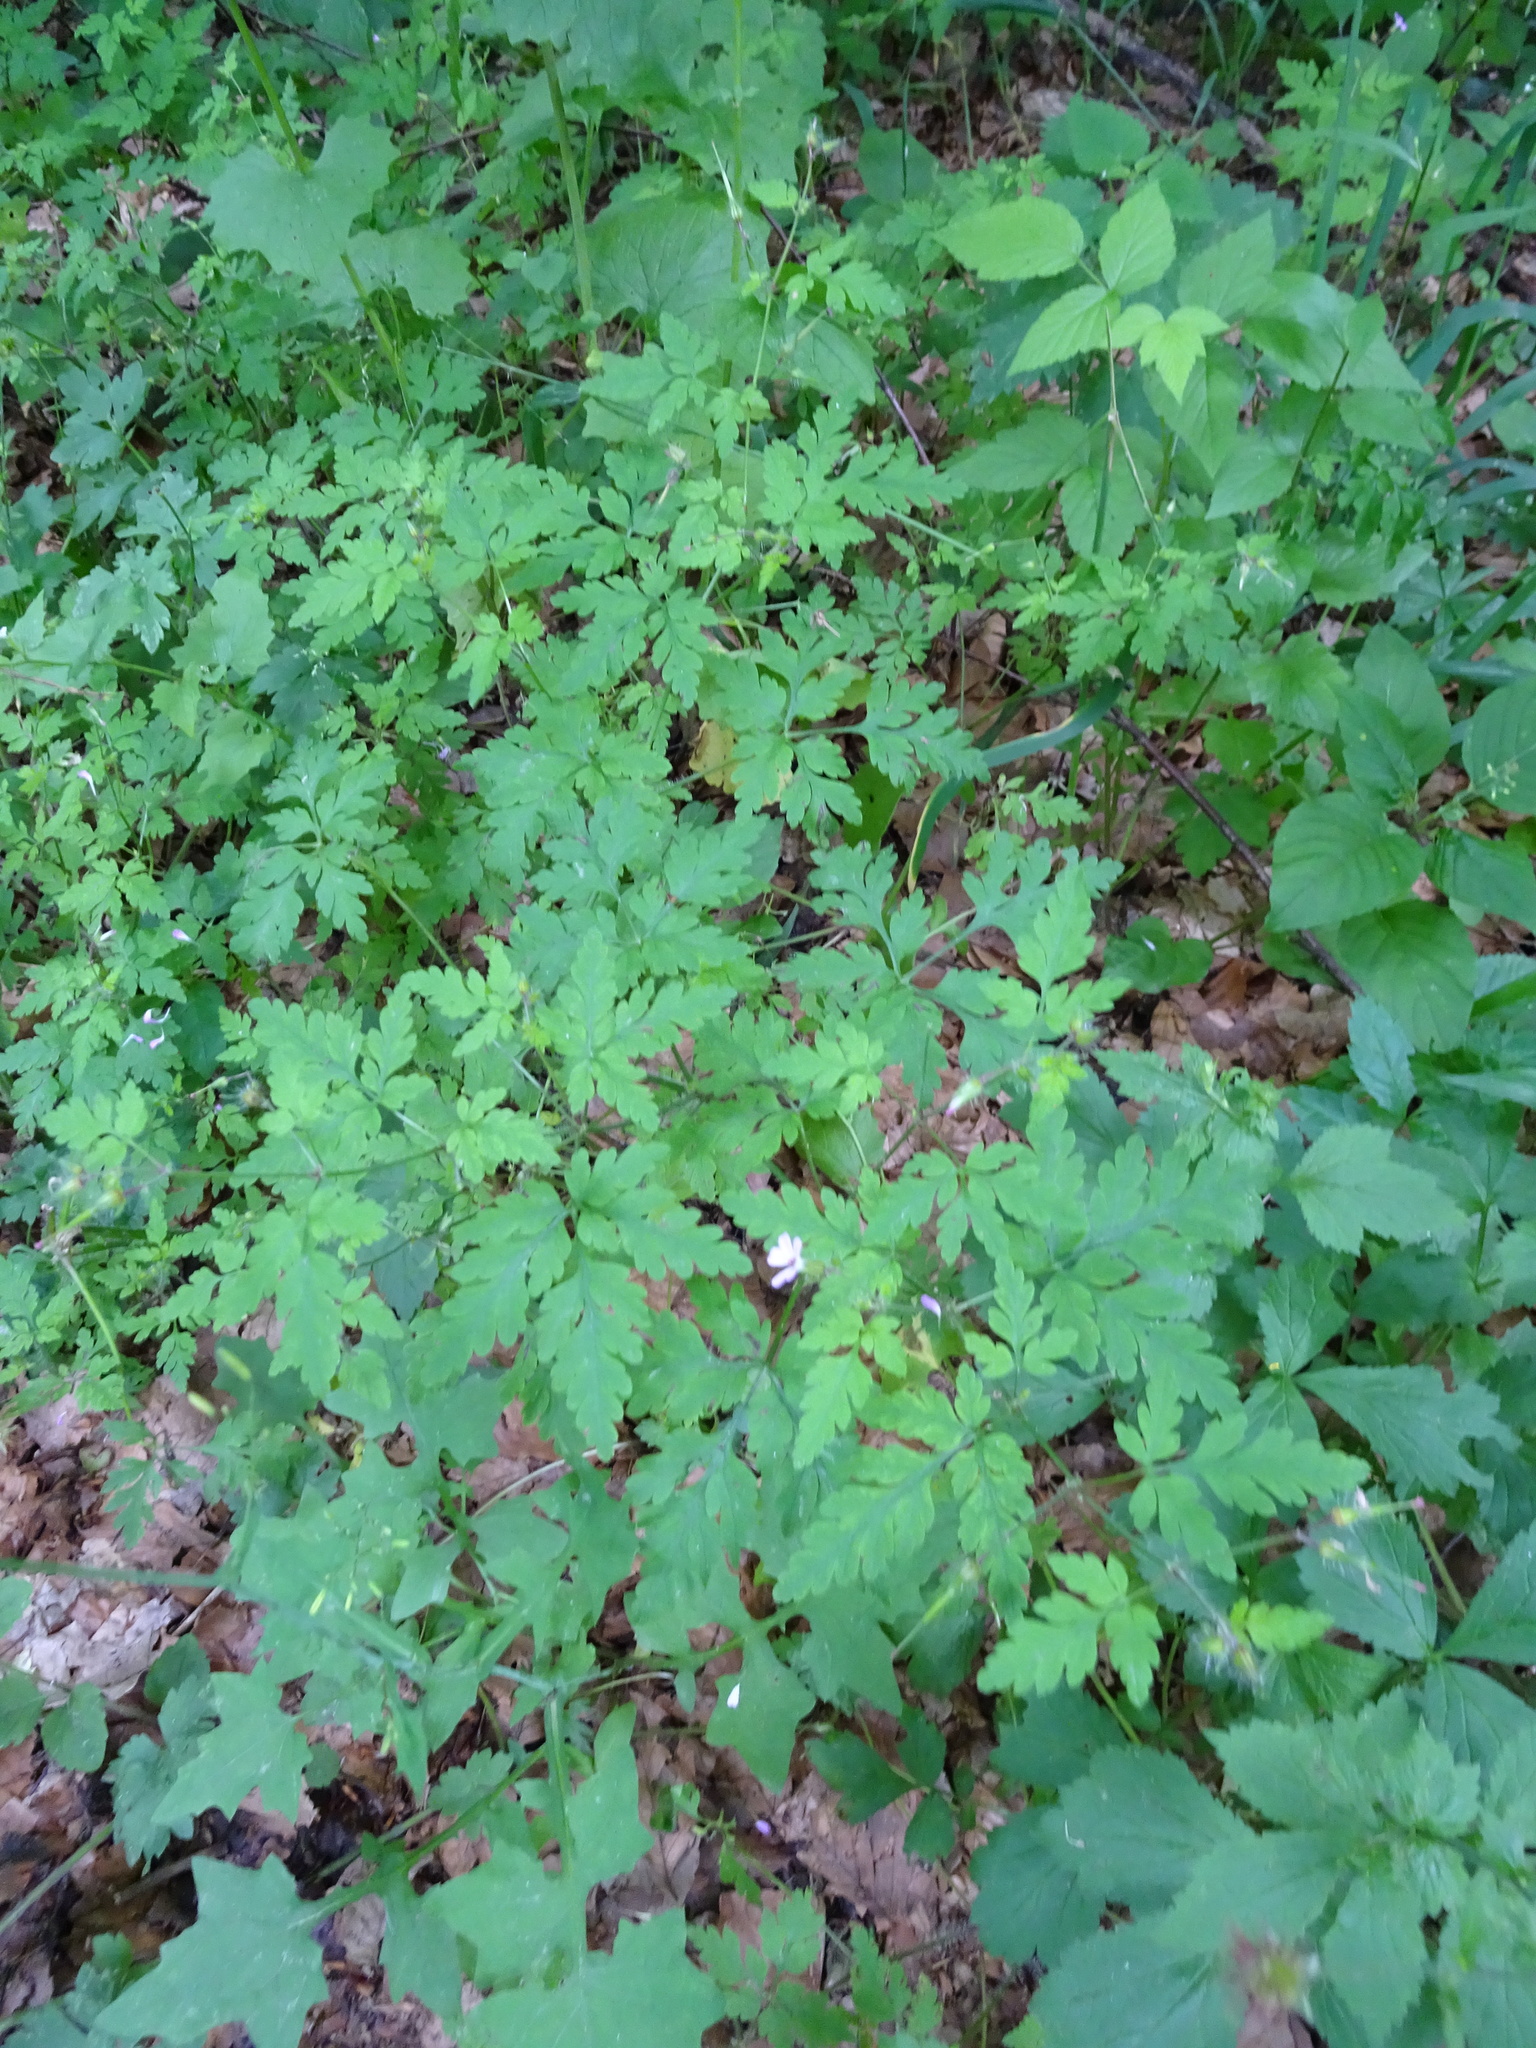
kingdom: Plantae
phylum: Tracheophyta
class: Magnoliopsida
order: Geraniales
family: Geraniaceae
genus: Geranium
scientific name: Geranium robertianum
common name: Herb-robert
